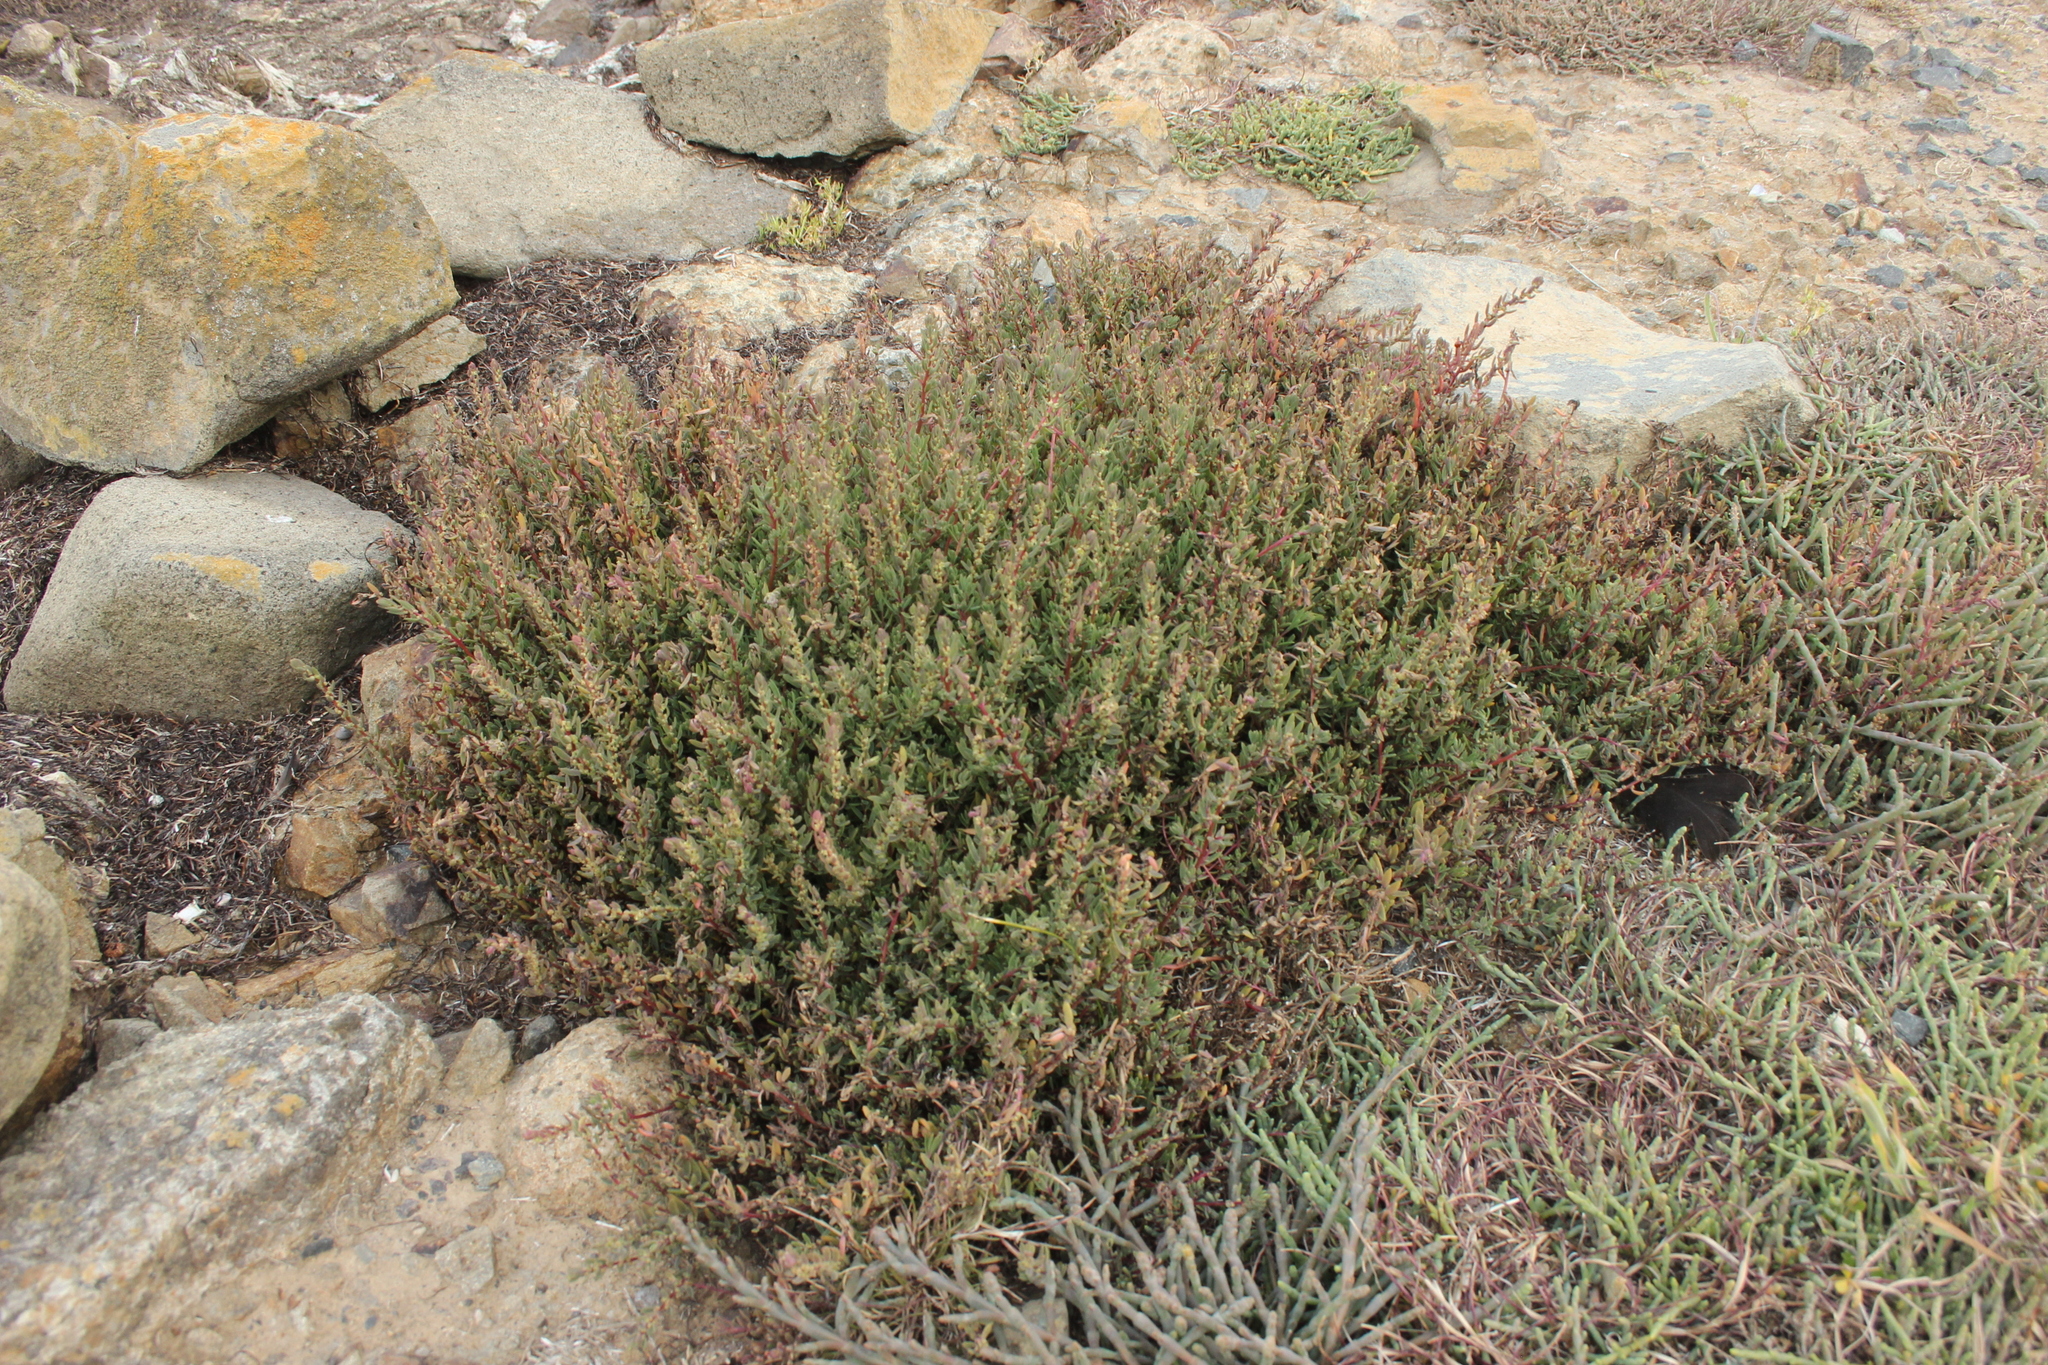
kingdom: Plantae
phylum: Tracheophyta
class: Magnoliopsida
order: Caryophyllales
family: Amaranthaceae
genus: Suaeda
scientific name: Suaeda novae-zelandiae
